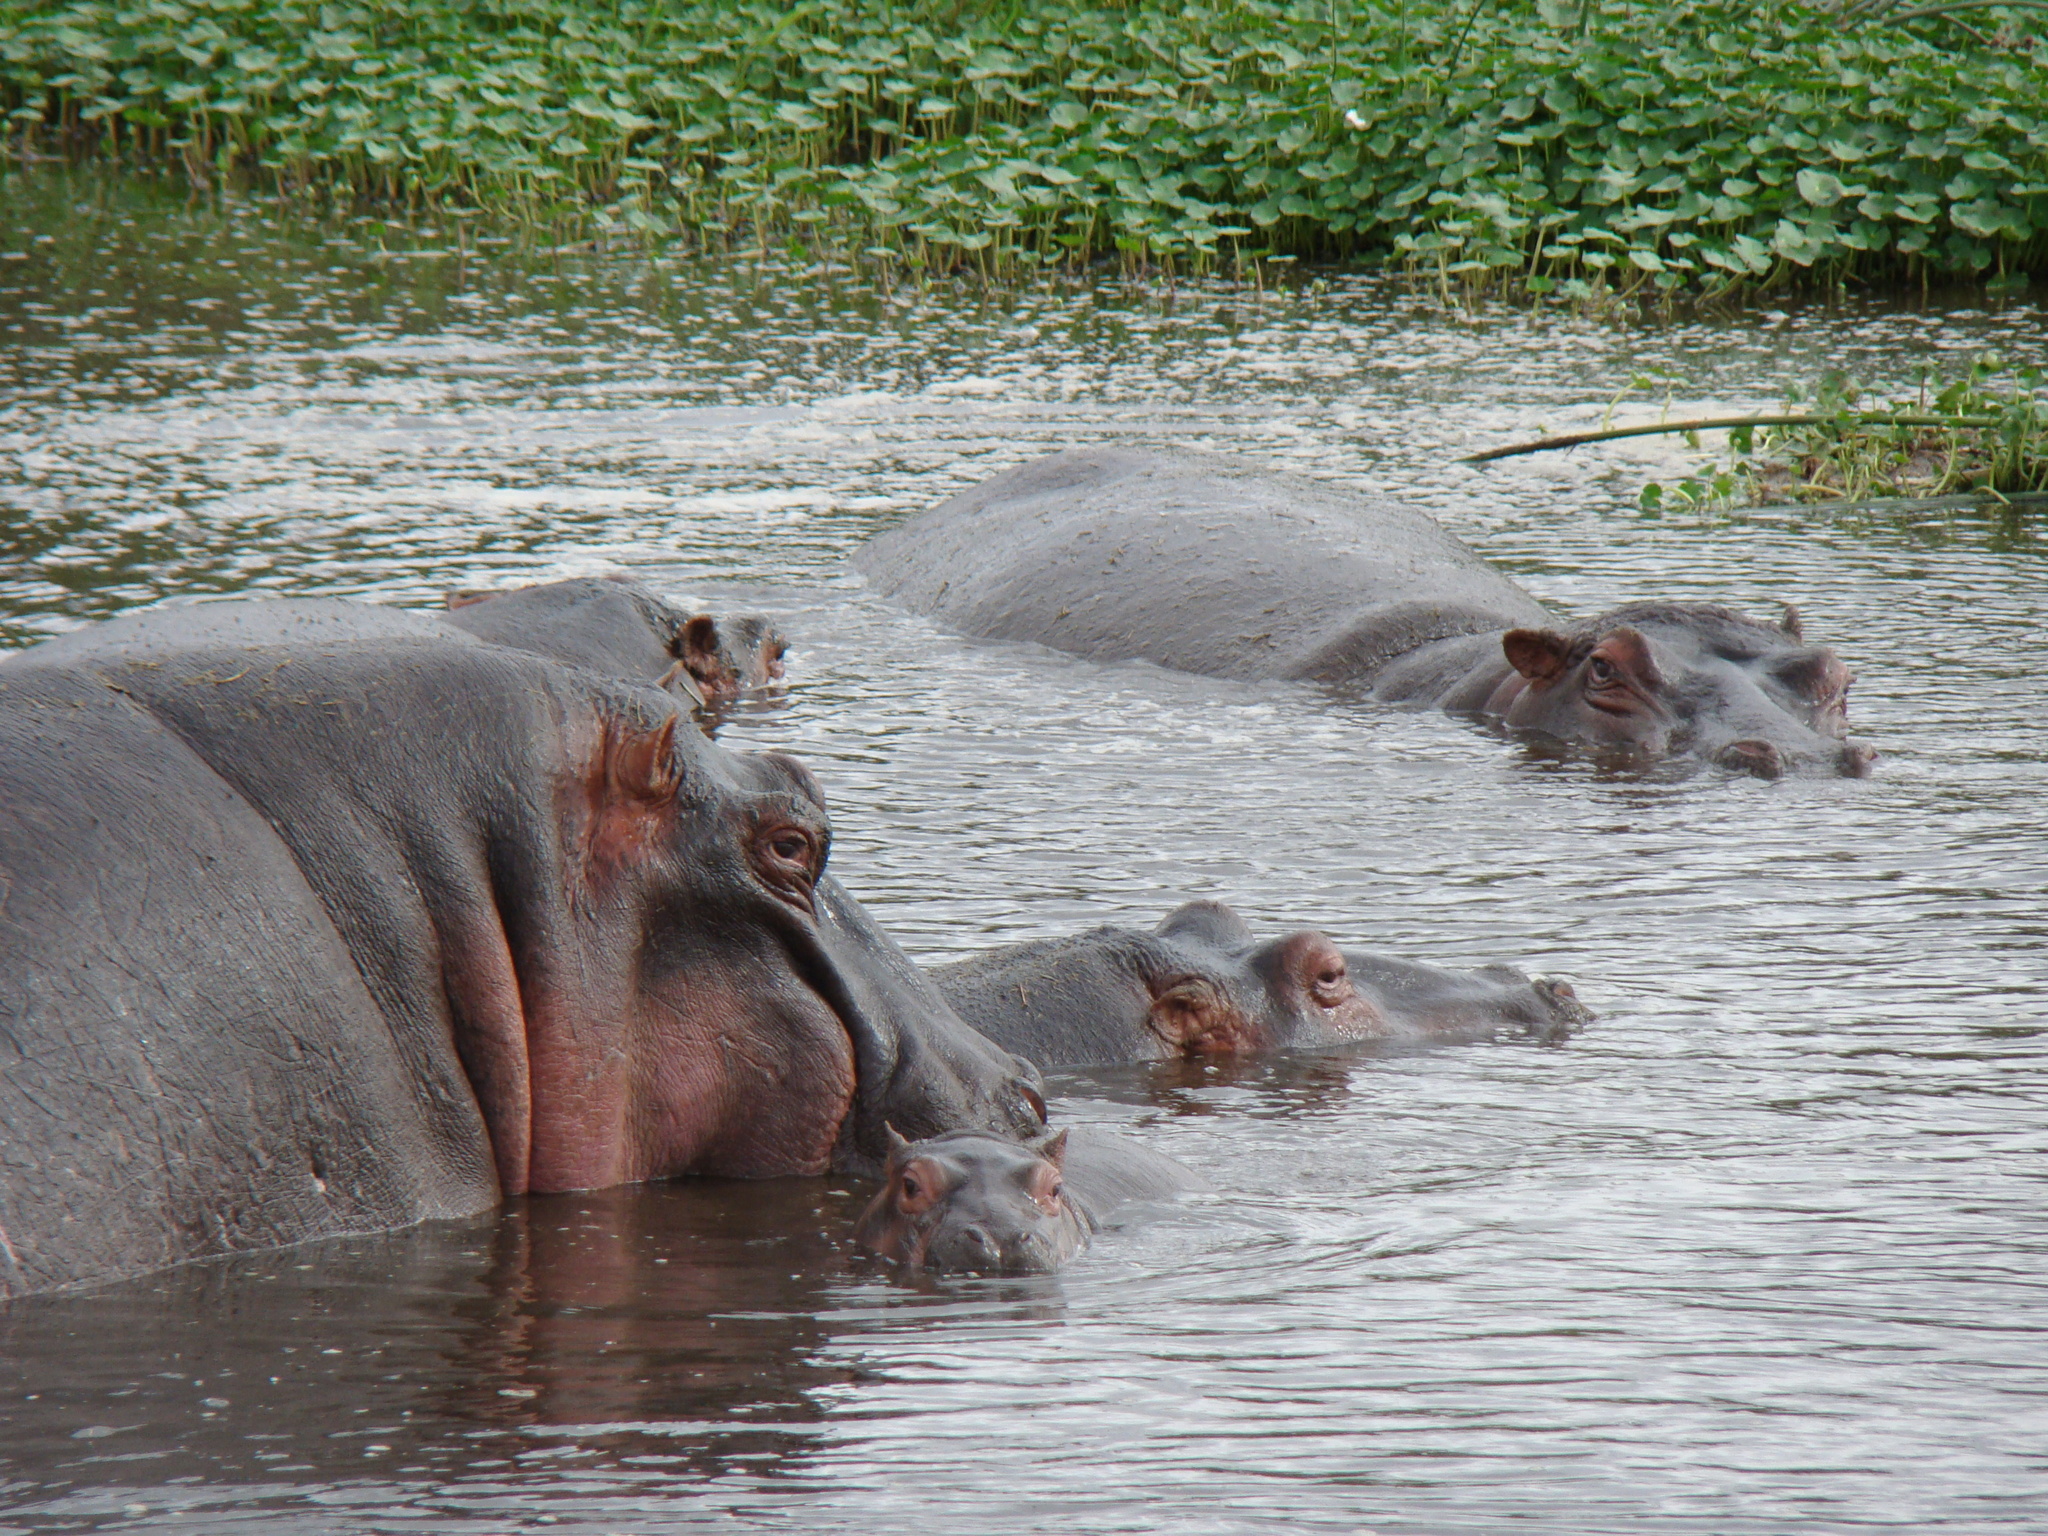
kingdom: Animalia
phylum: Chordata
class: Mammalia
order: Artiodactyla
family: Hippopotamidae
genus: Hippopotamus
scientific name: Hippopotamus amphibius
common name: Common hippopotamus
